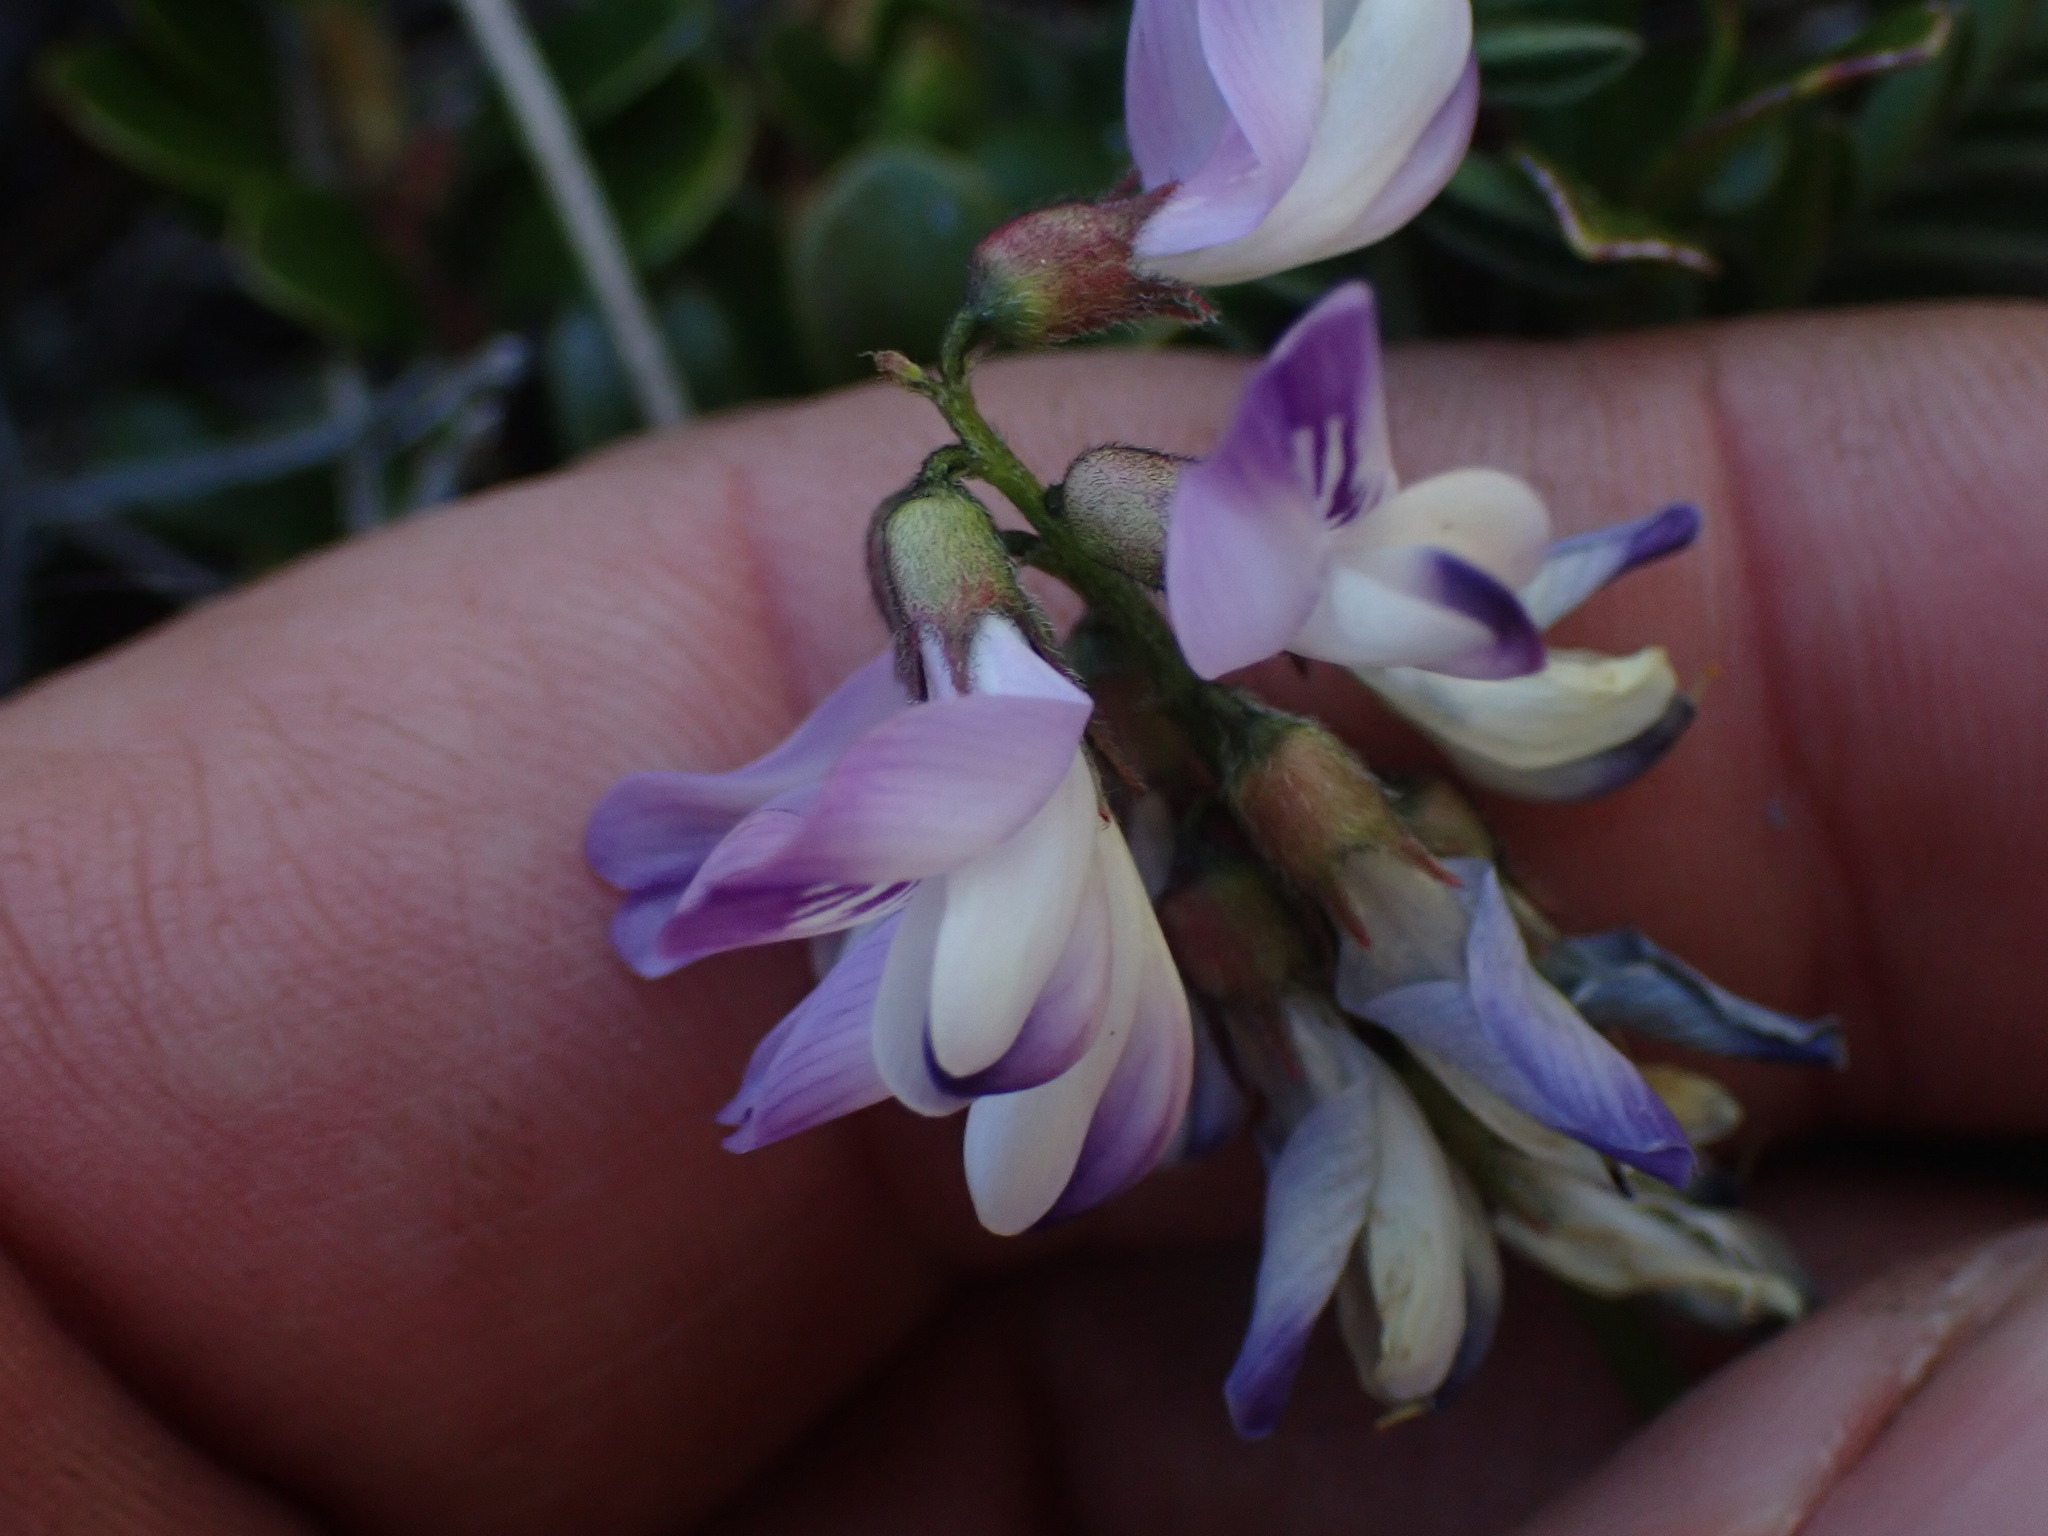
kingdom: Plantae
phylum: Tracheophyta
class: Magnoliopsida
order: Fabales
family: Fabaceae
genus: Astragalus
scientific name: Astragalus alpinus
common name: Alpine milk-vetch
